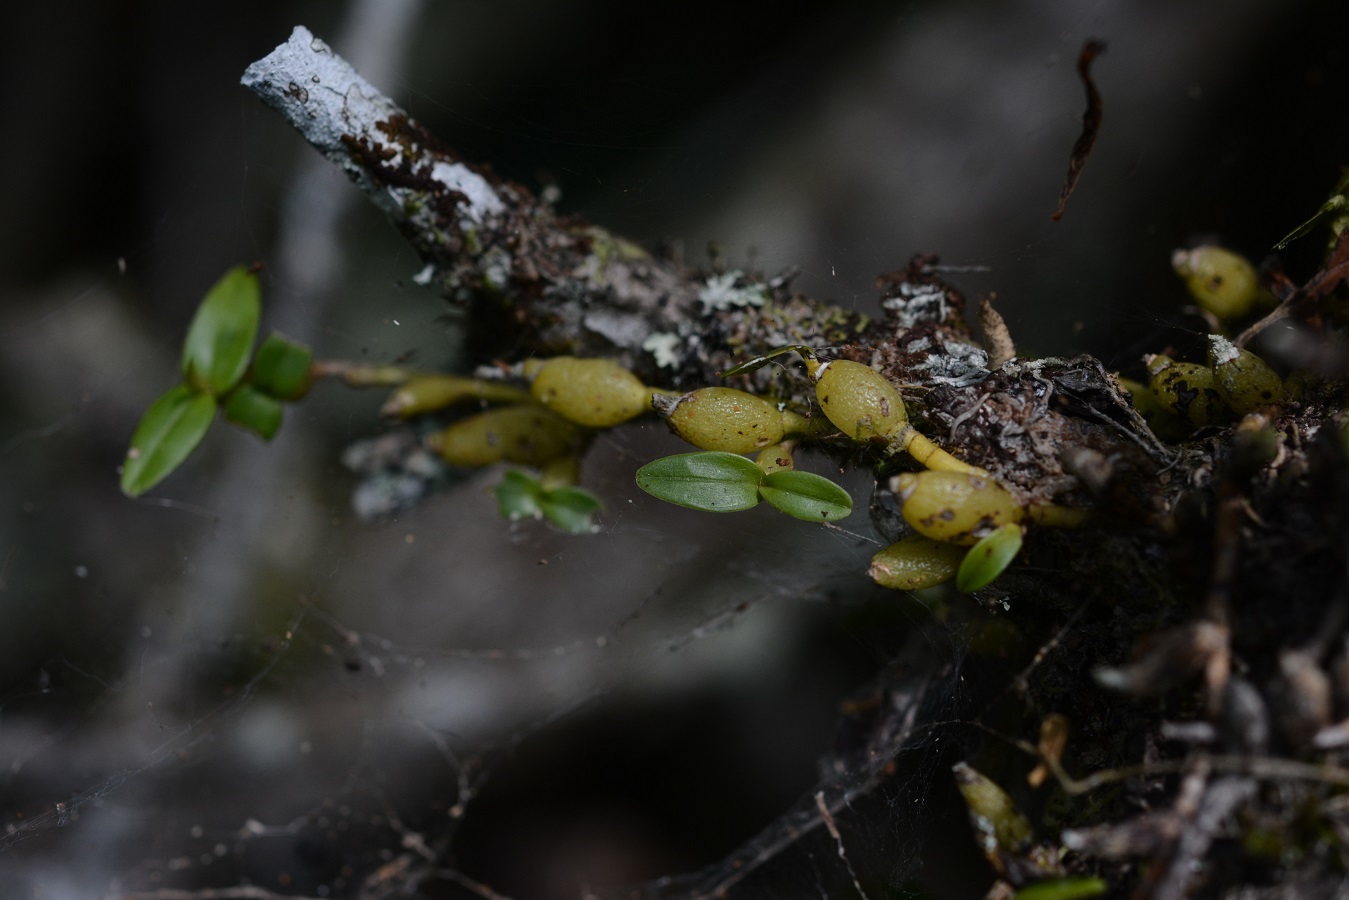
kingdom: Plantae
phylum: Tracheophyta
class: Liliopsida
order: Asparagales
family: Orchidaceae
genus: Dinema
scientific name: Dinema polybulbon
